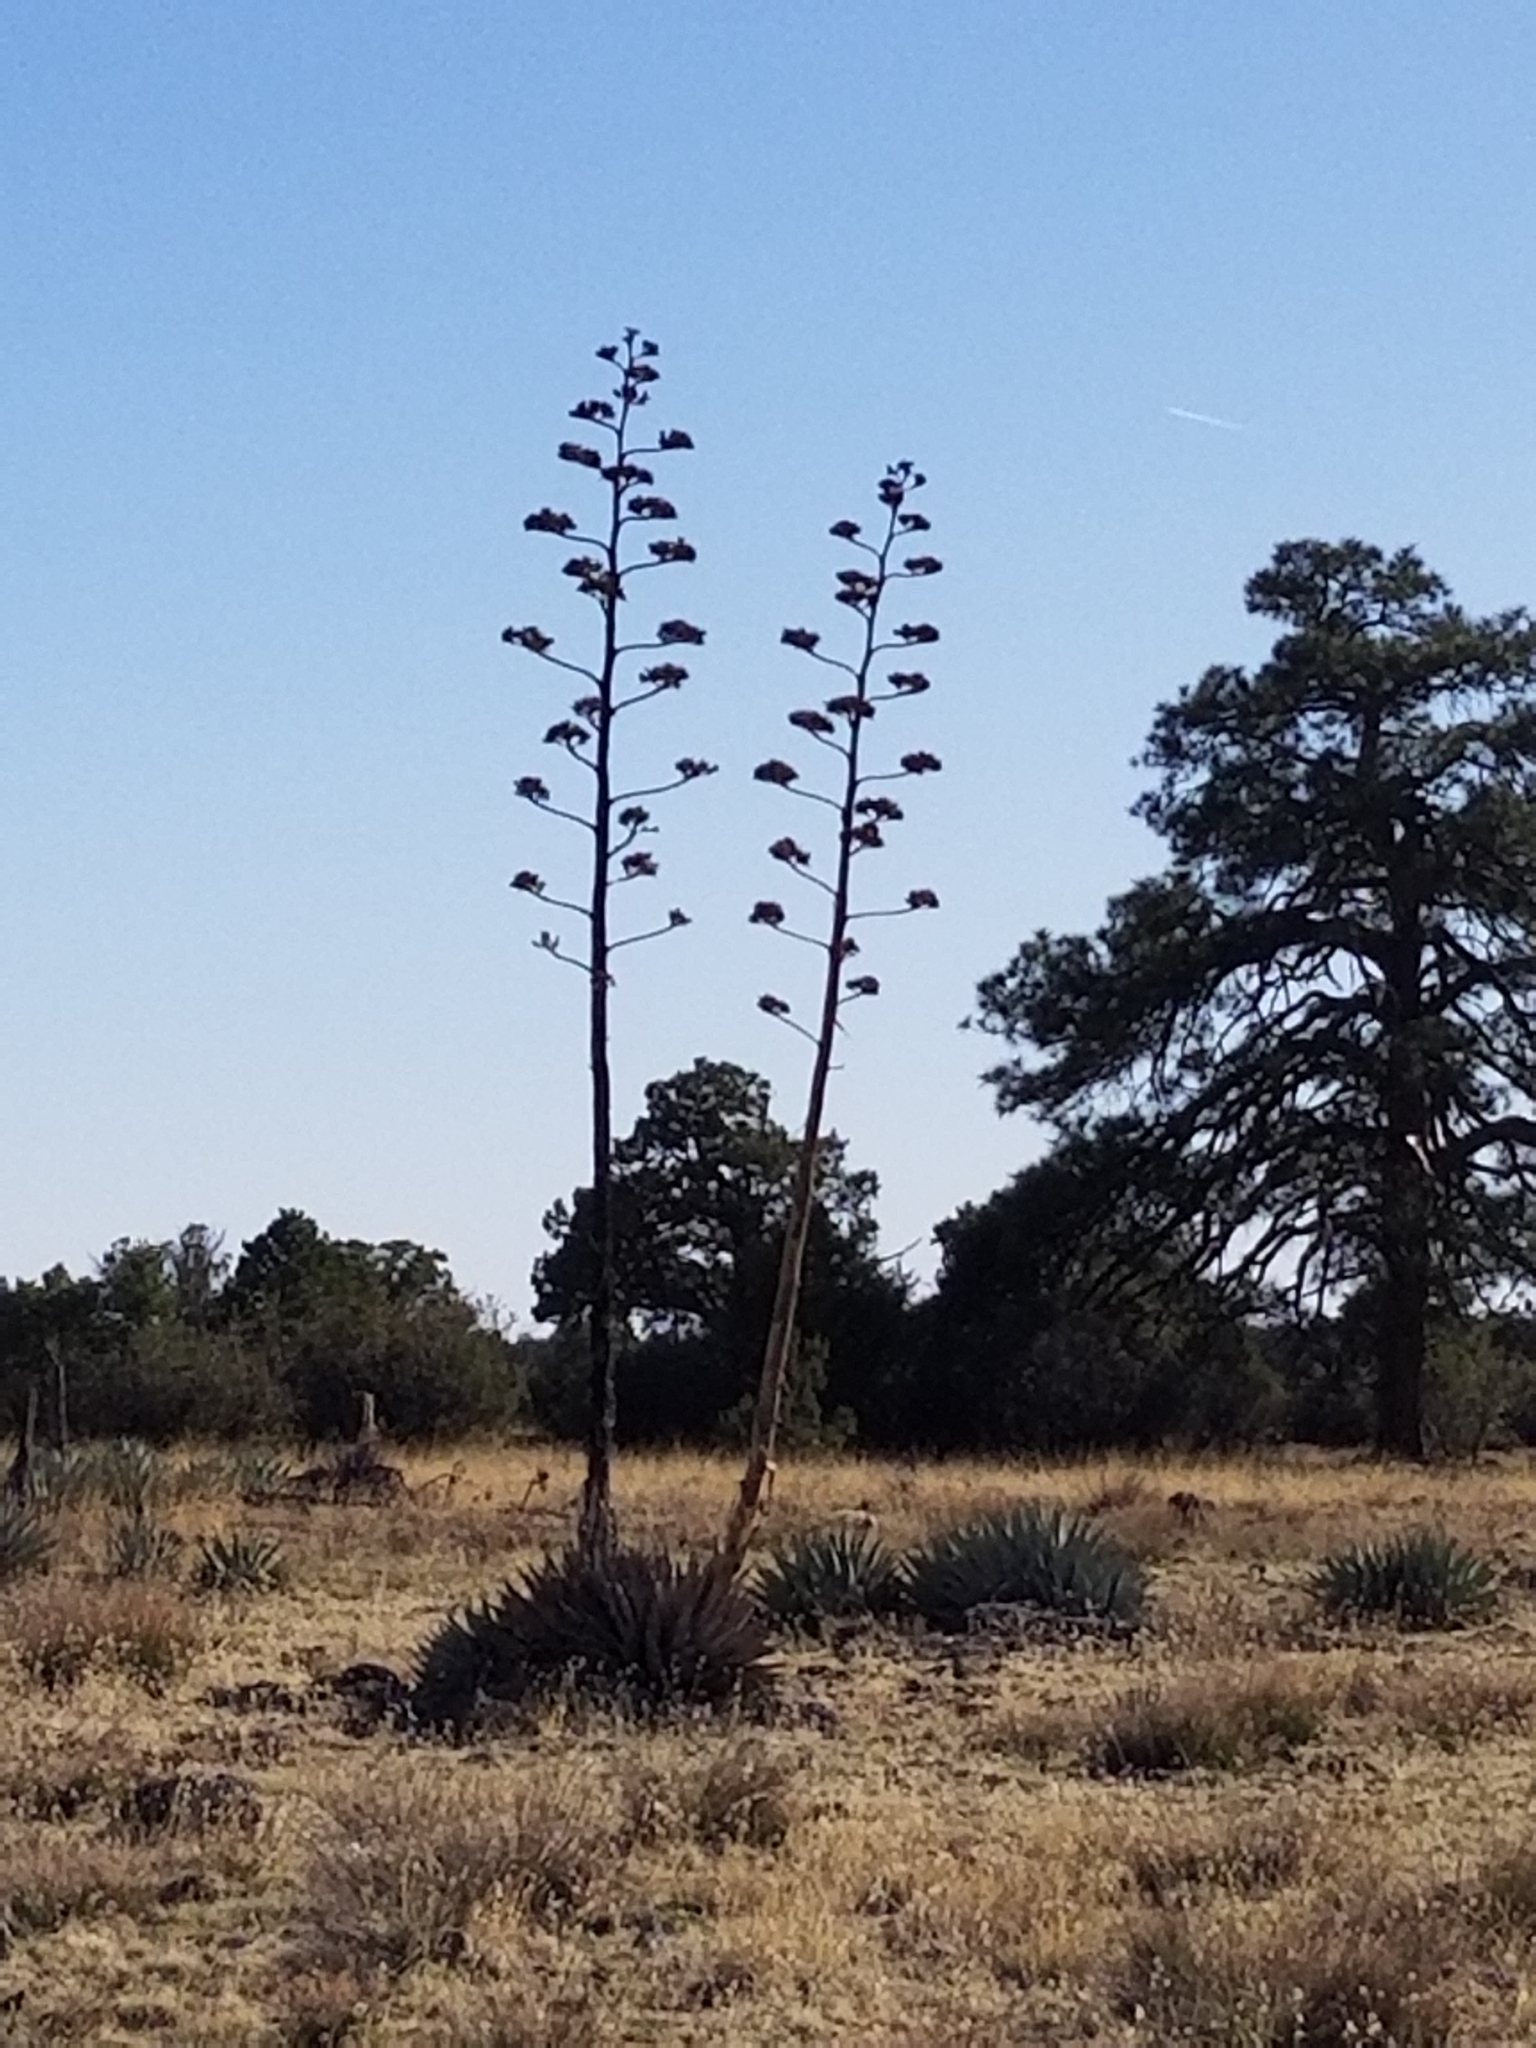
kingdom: Plantae
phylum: Tracheophyta
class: Liliopsida
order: Asparagales
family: Asparagaceae
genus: Agave
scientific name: Agave parryi
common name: Parry's agave
